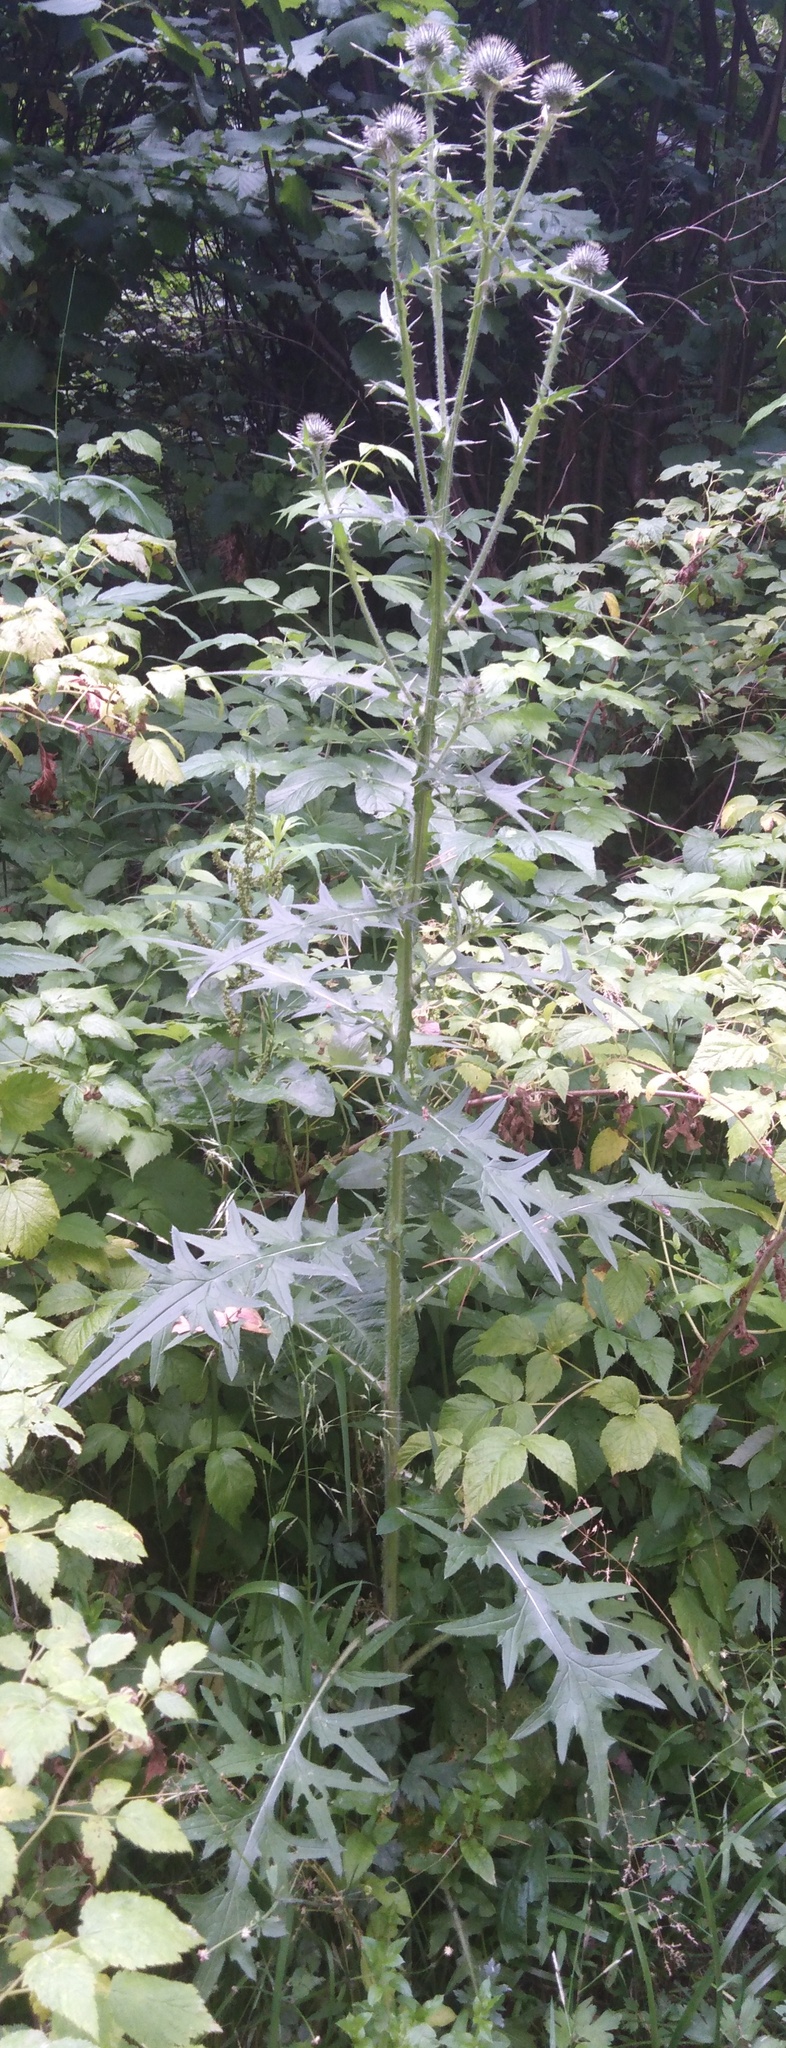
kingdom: Plantae
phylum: Tracheophyta
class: Magnoliopsida
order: Asterales
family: Asteraceae
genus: Cirsium
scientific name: Cirsium vulgare
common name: Bull thistle
